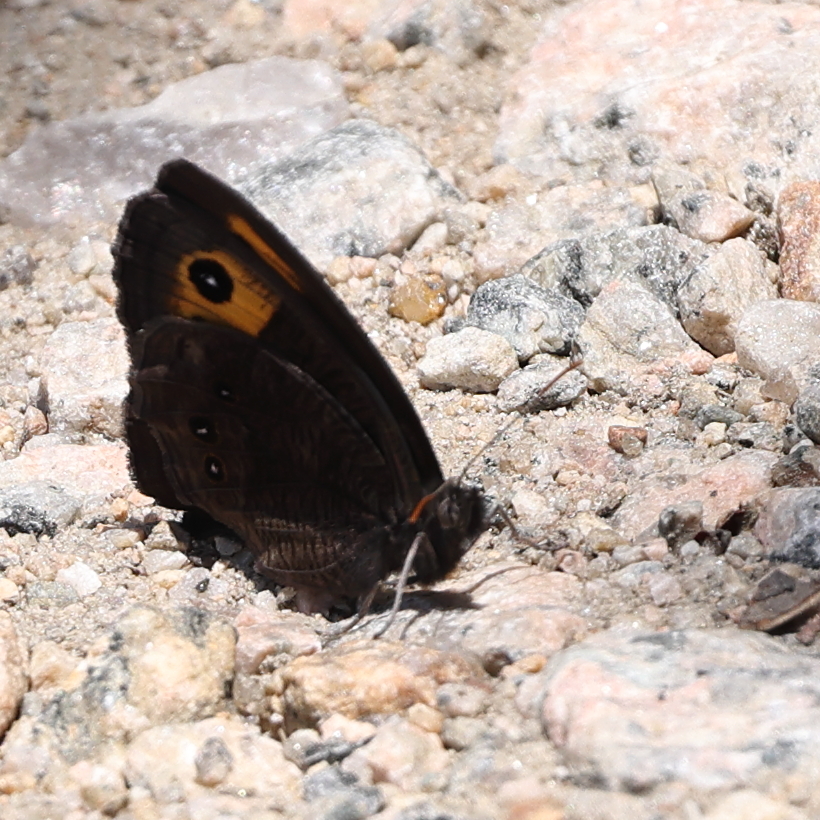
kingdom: Animalia
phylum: Arthropoda
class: Insecta
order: Lepidoptera
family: Nymphalidae
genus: Cercyonis
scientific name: Cercyonis pegala
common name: Common wood-nymph
